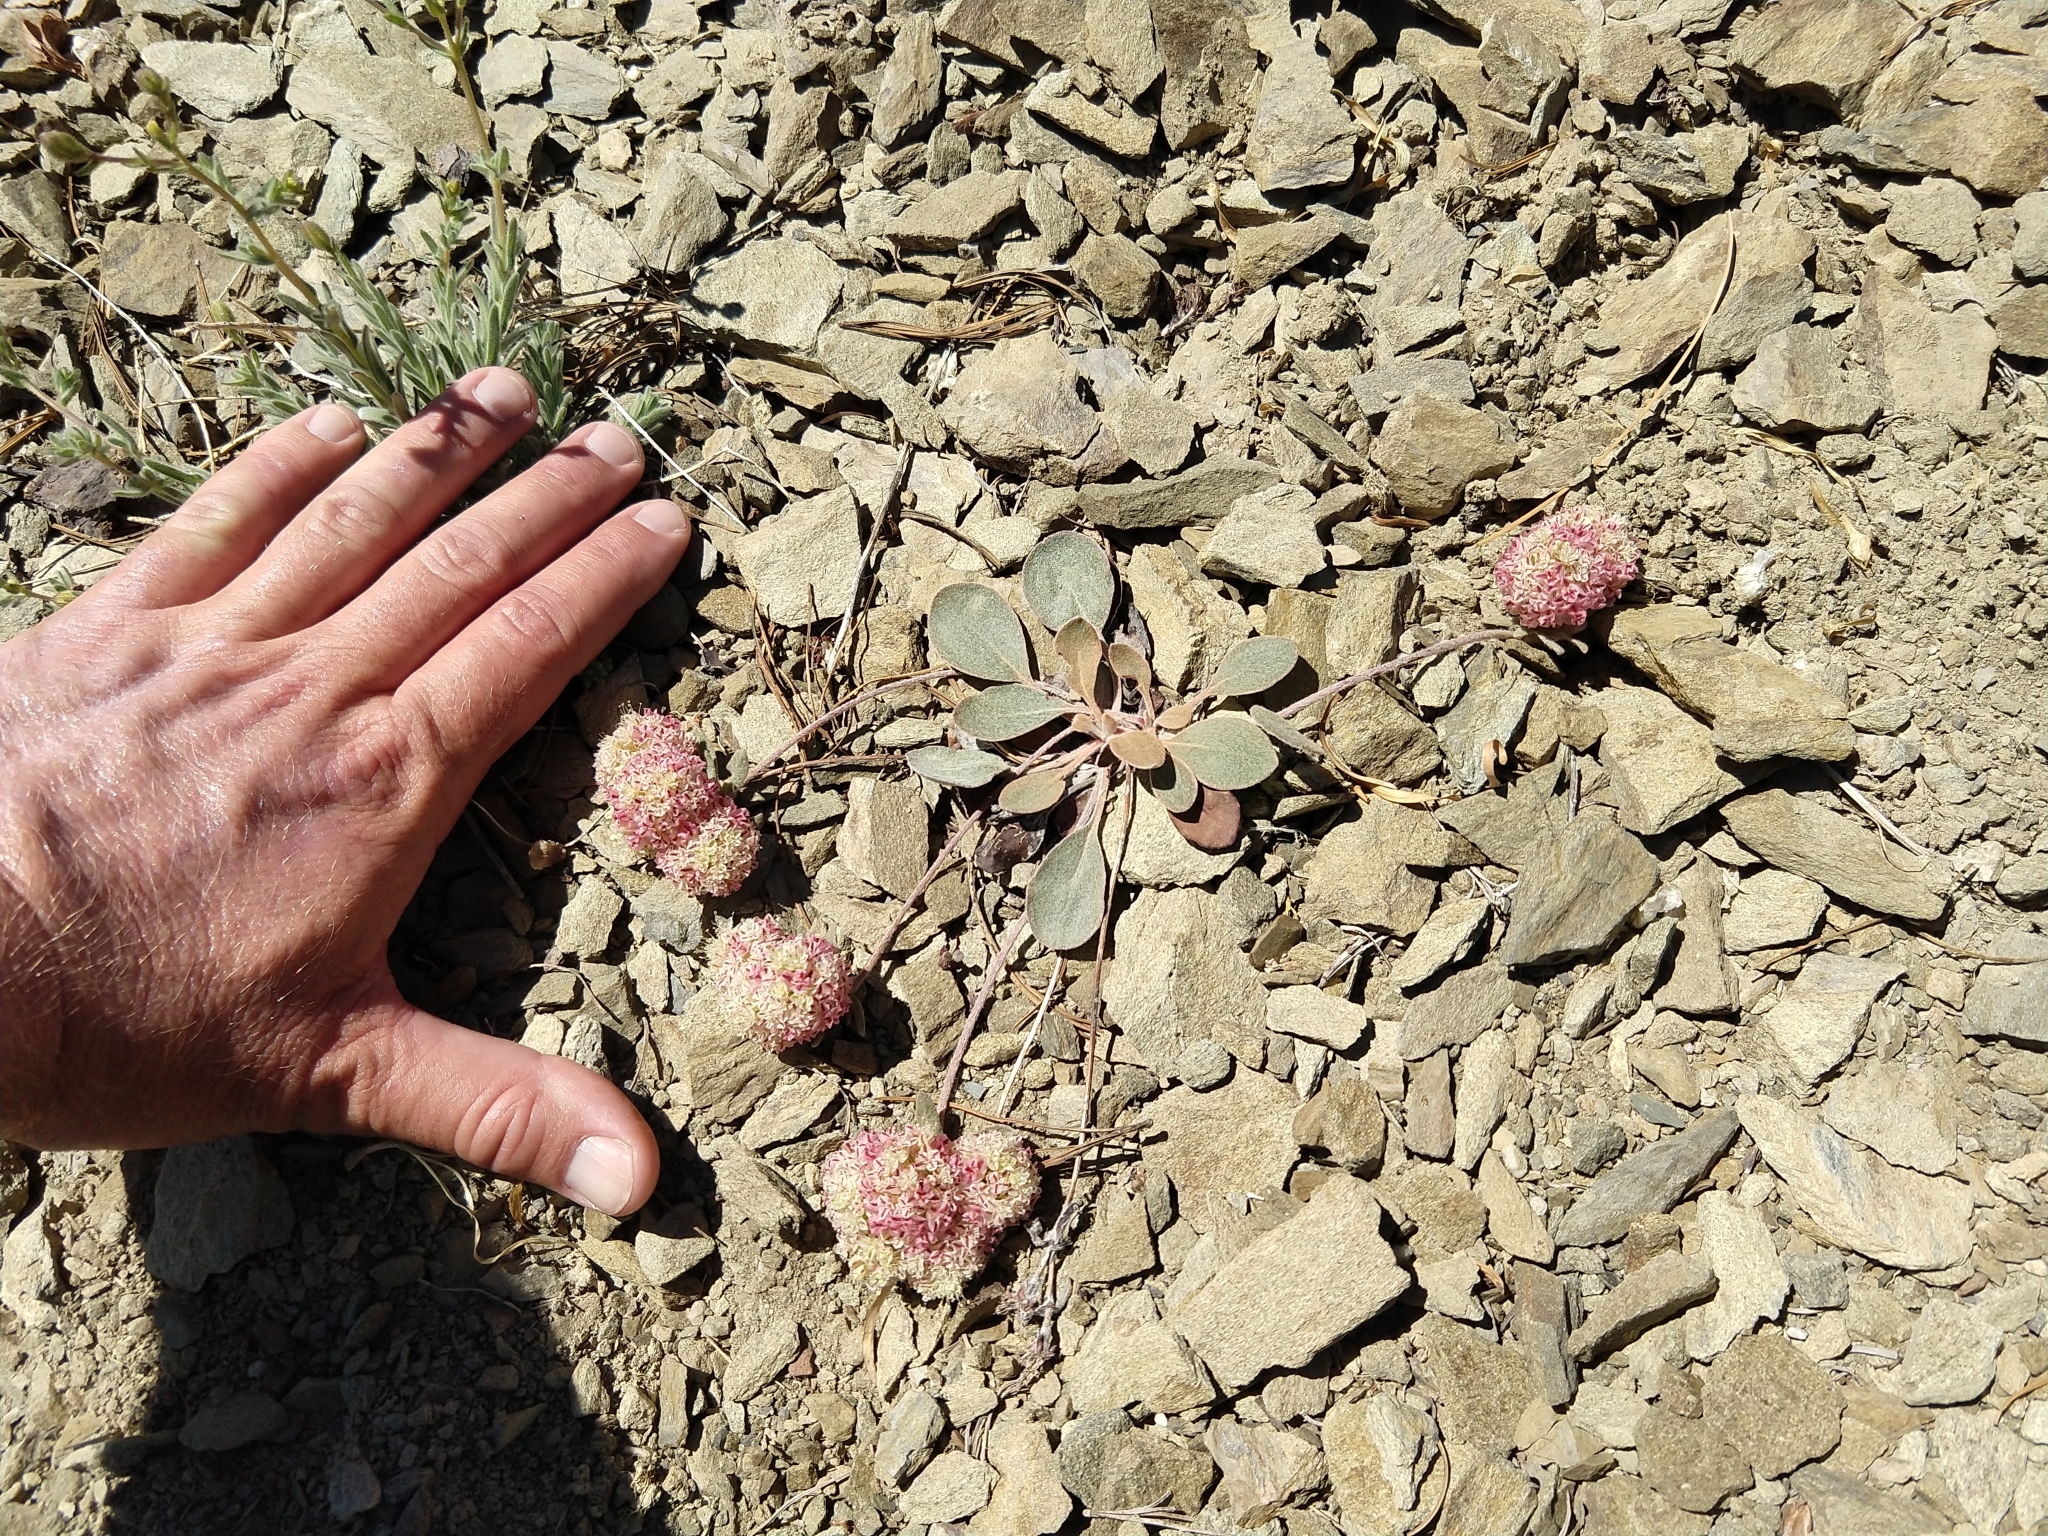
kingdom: Plantae
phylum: Tracheophyta
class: Magnoliopsida
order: Caryophyllales
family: Polygonaceae
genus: Eriogonum
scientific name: Eriogonum lobbii
